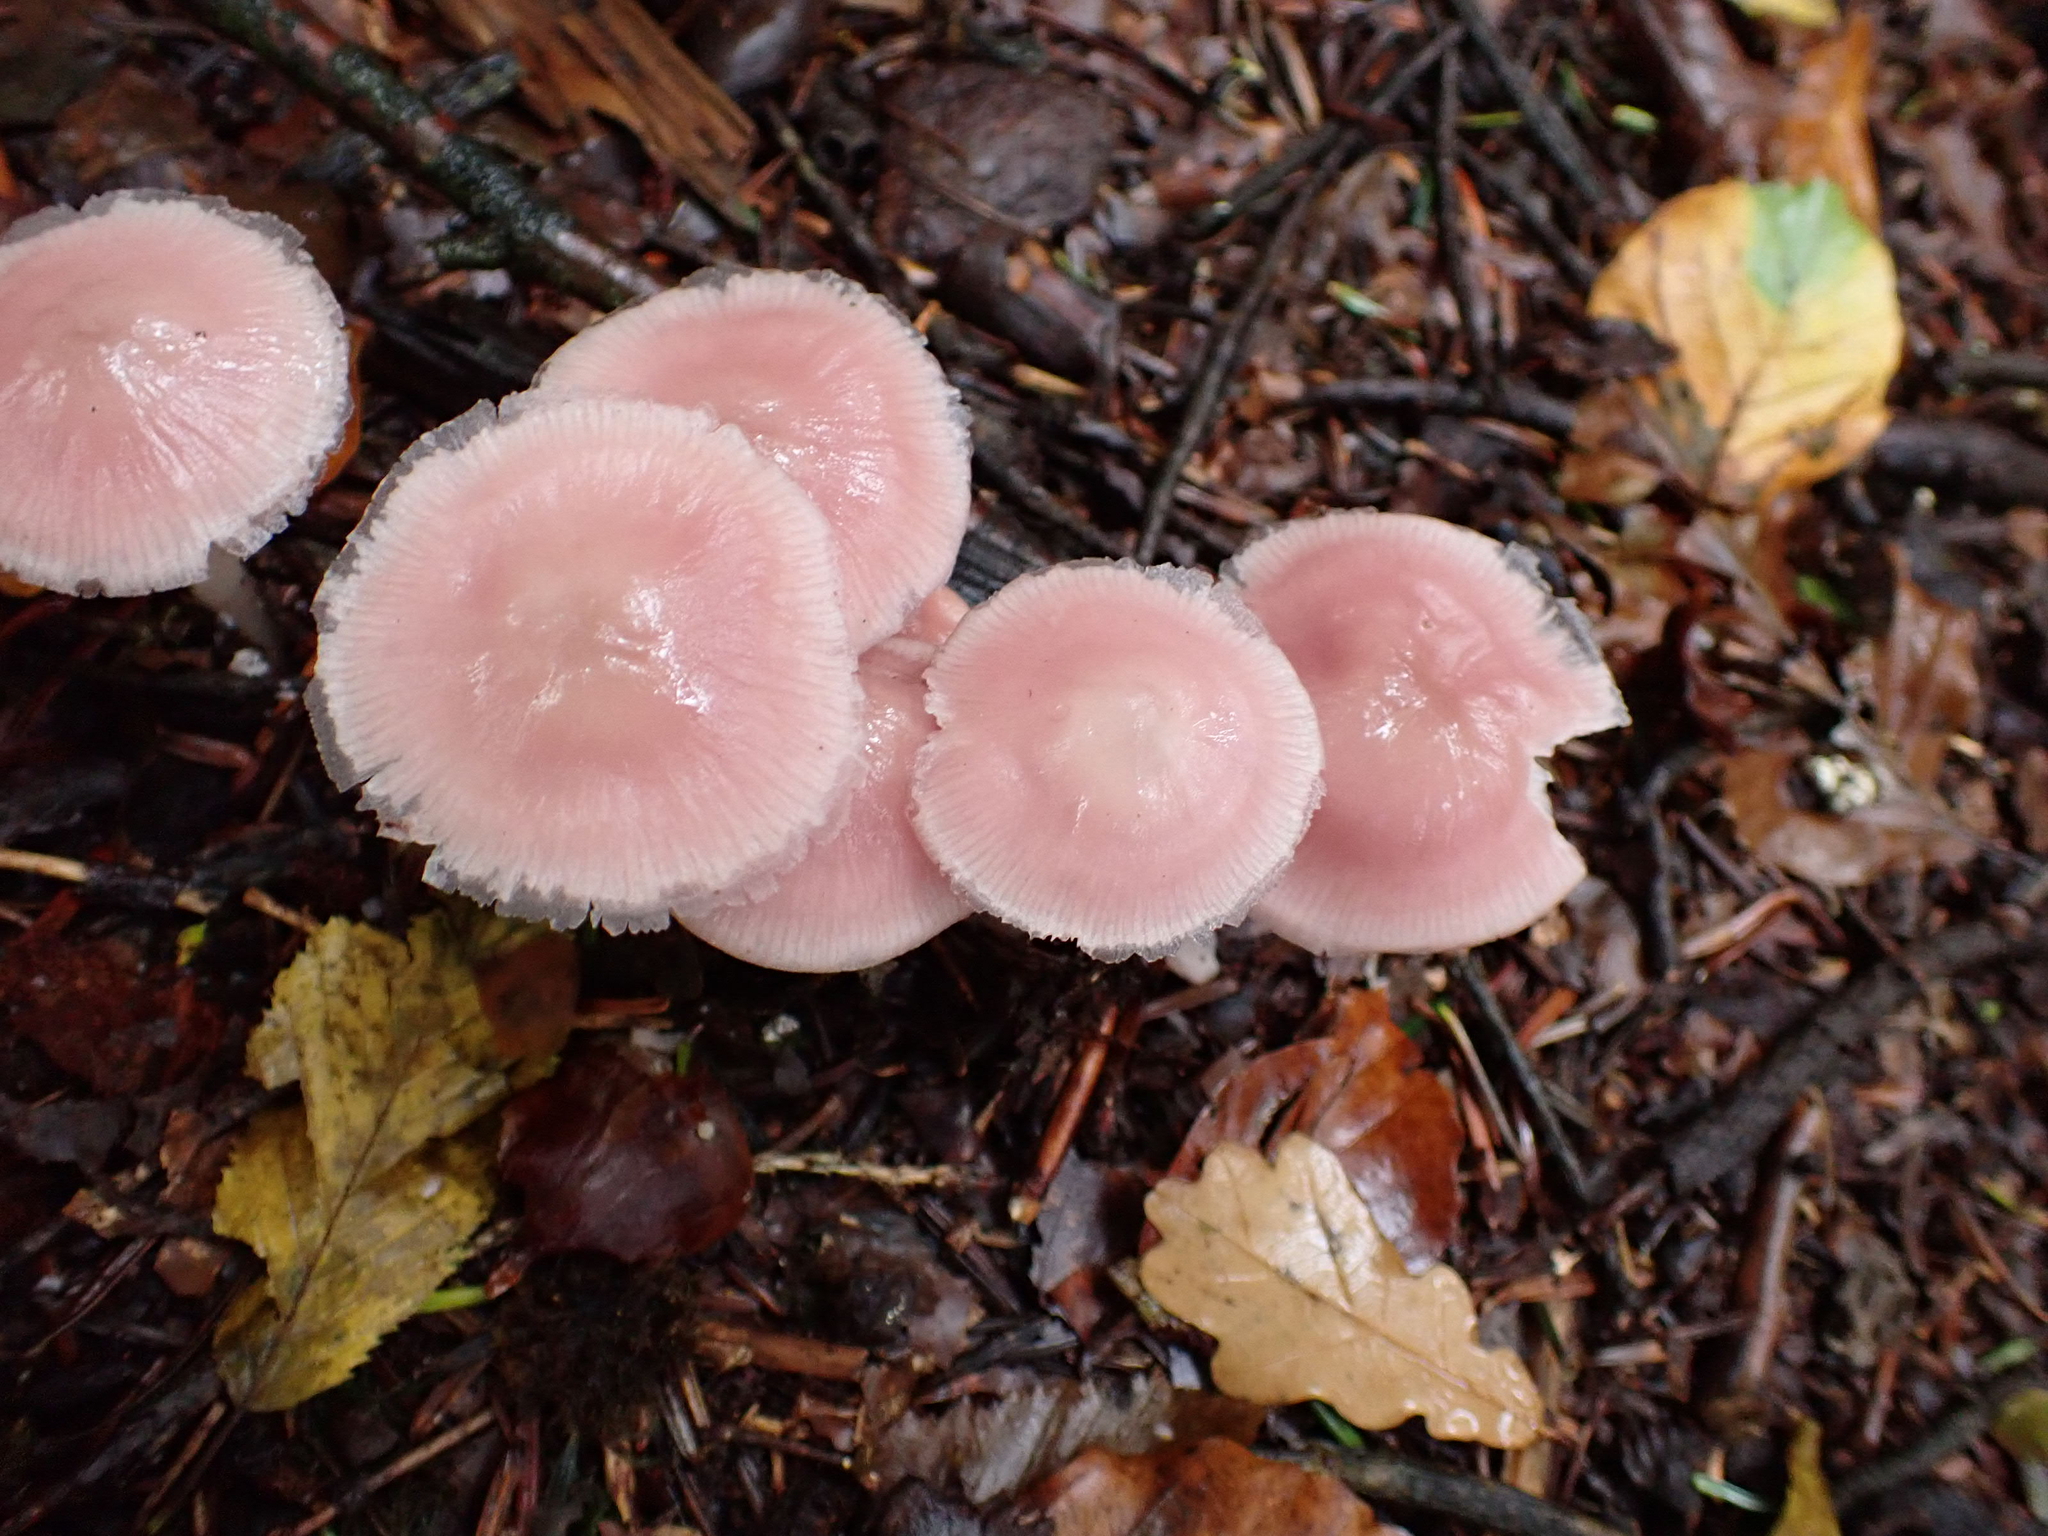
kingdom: Fungi
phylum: Basidiomycota
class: Agaricomycetes
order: Agaricales
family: Mycenaceae
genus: Mycena
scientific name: Mycena rosea
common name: Rosy bonnet
